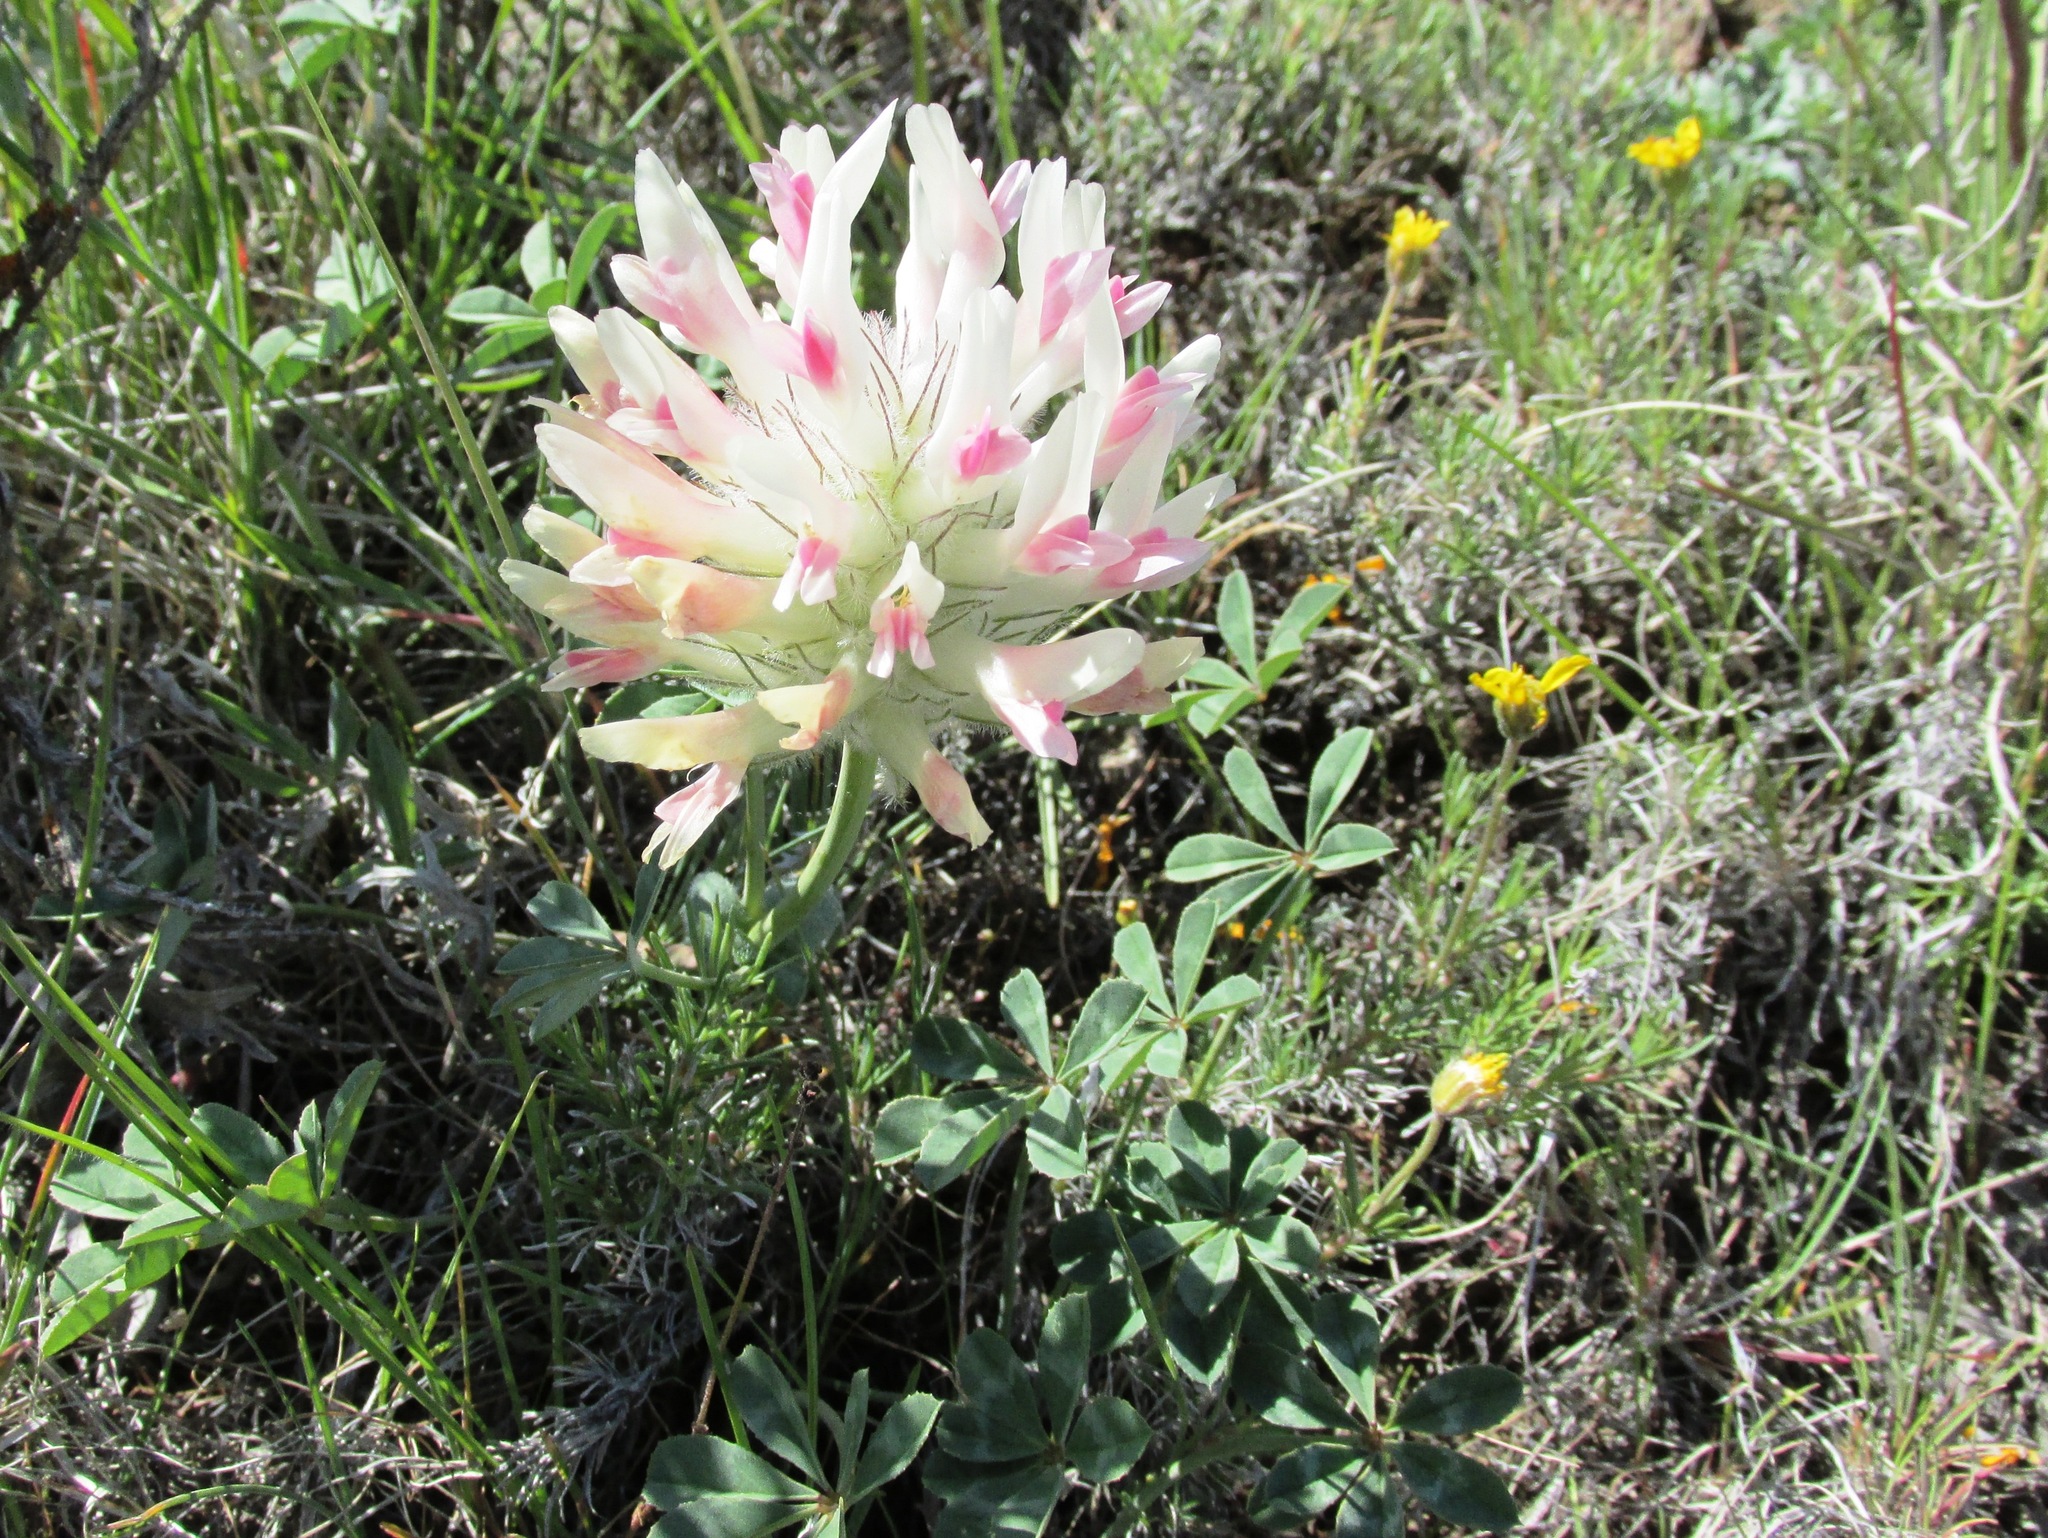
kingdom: Plantae
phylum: Tracheophyta
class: Magnoliopsida
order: Fabales
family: Fabaceae
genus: Trifolium
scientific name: Trifolium macrocephalum
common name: Large-head clover
